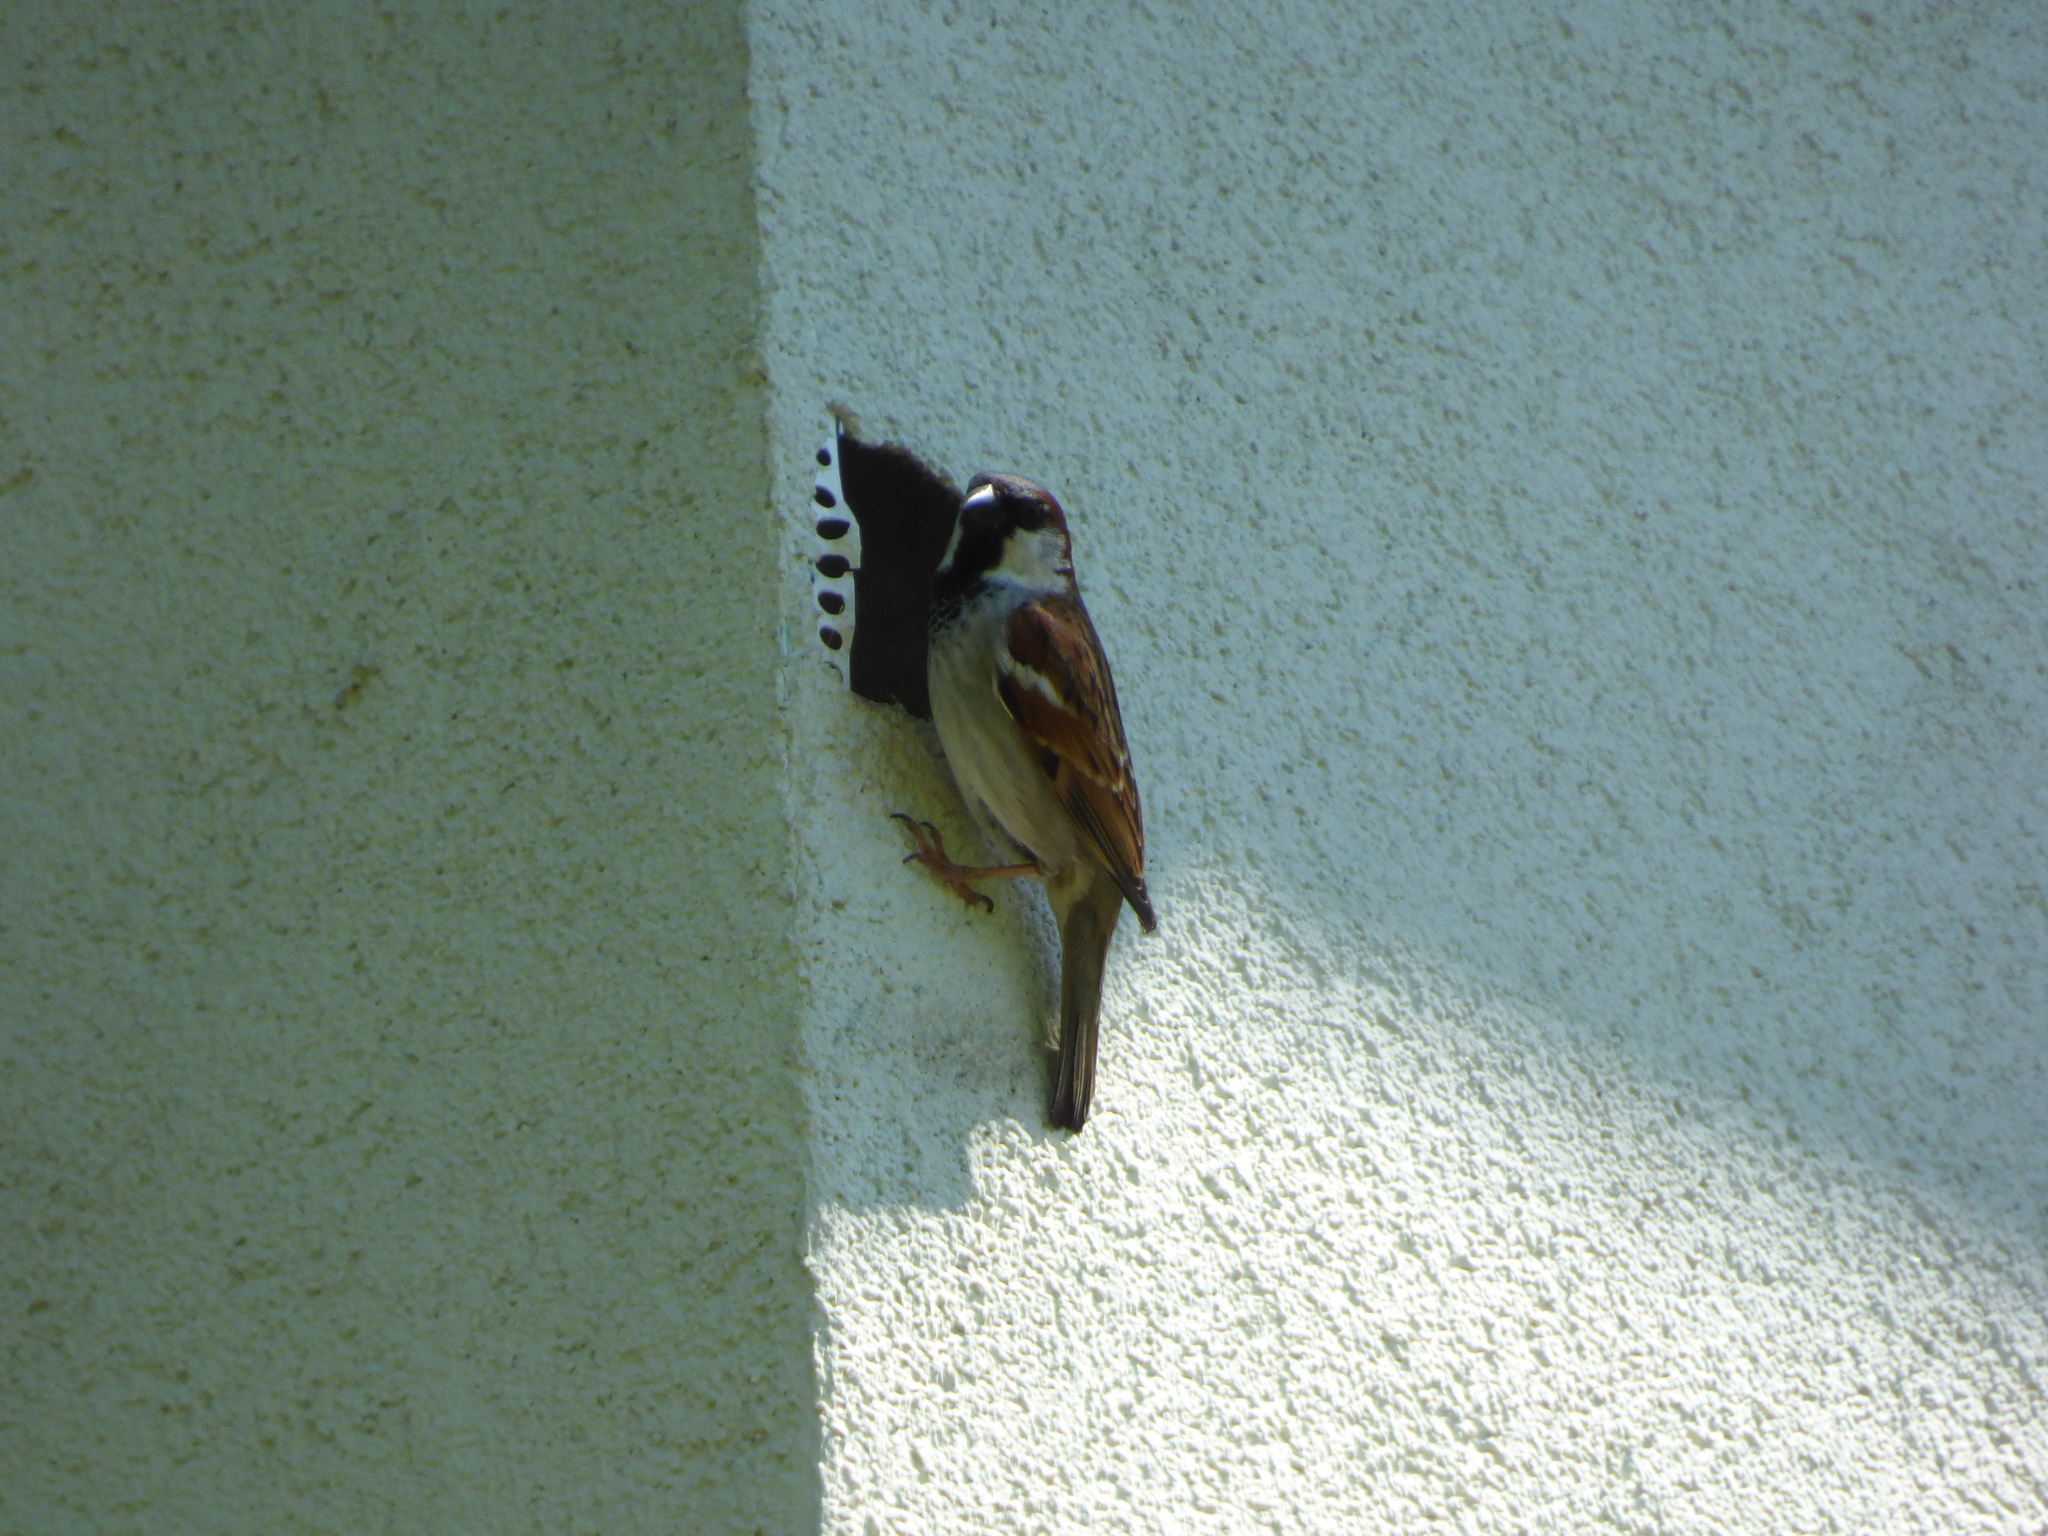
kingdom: Animalia
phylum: Chordata
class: Aves
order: Passeriformes
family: Passeridae
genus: Passer
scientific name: Passer domesticus
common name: House sparrow
